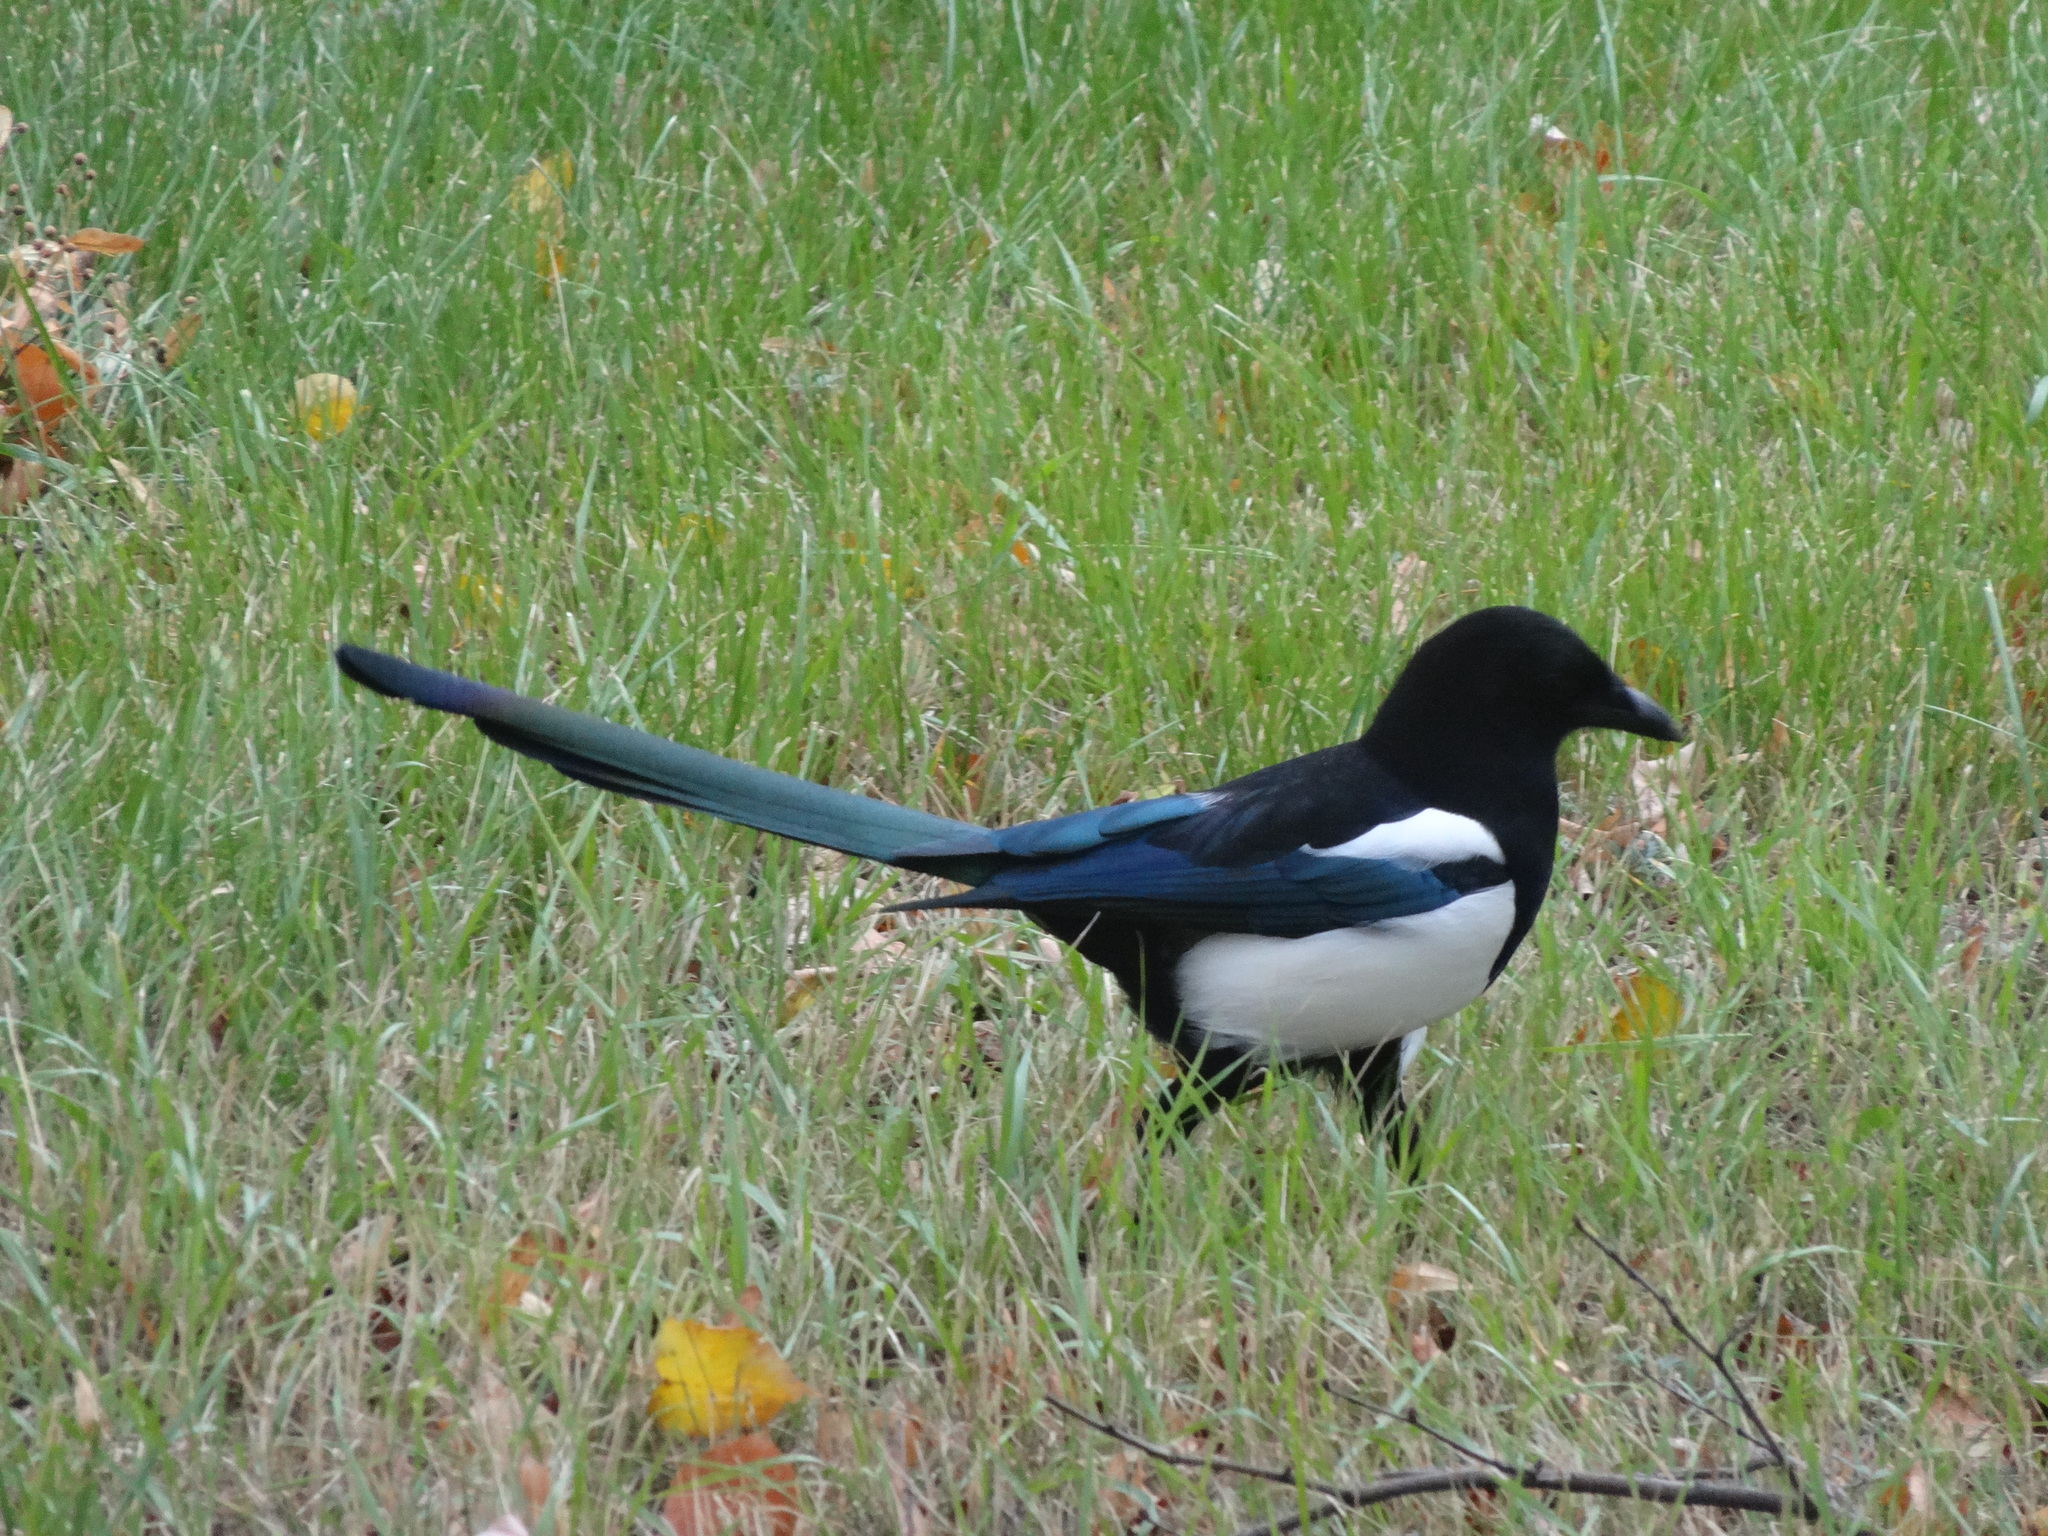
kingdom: Animalia
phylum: Chordata
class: Aves
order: Passeriformes
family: Corvidae
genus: Pica
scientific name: Pica pica
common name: Eurasian magpie
